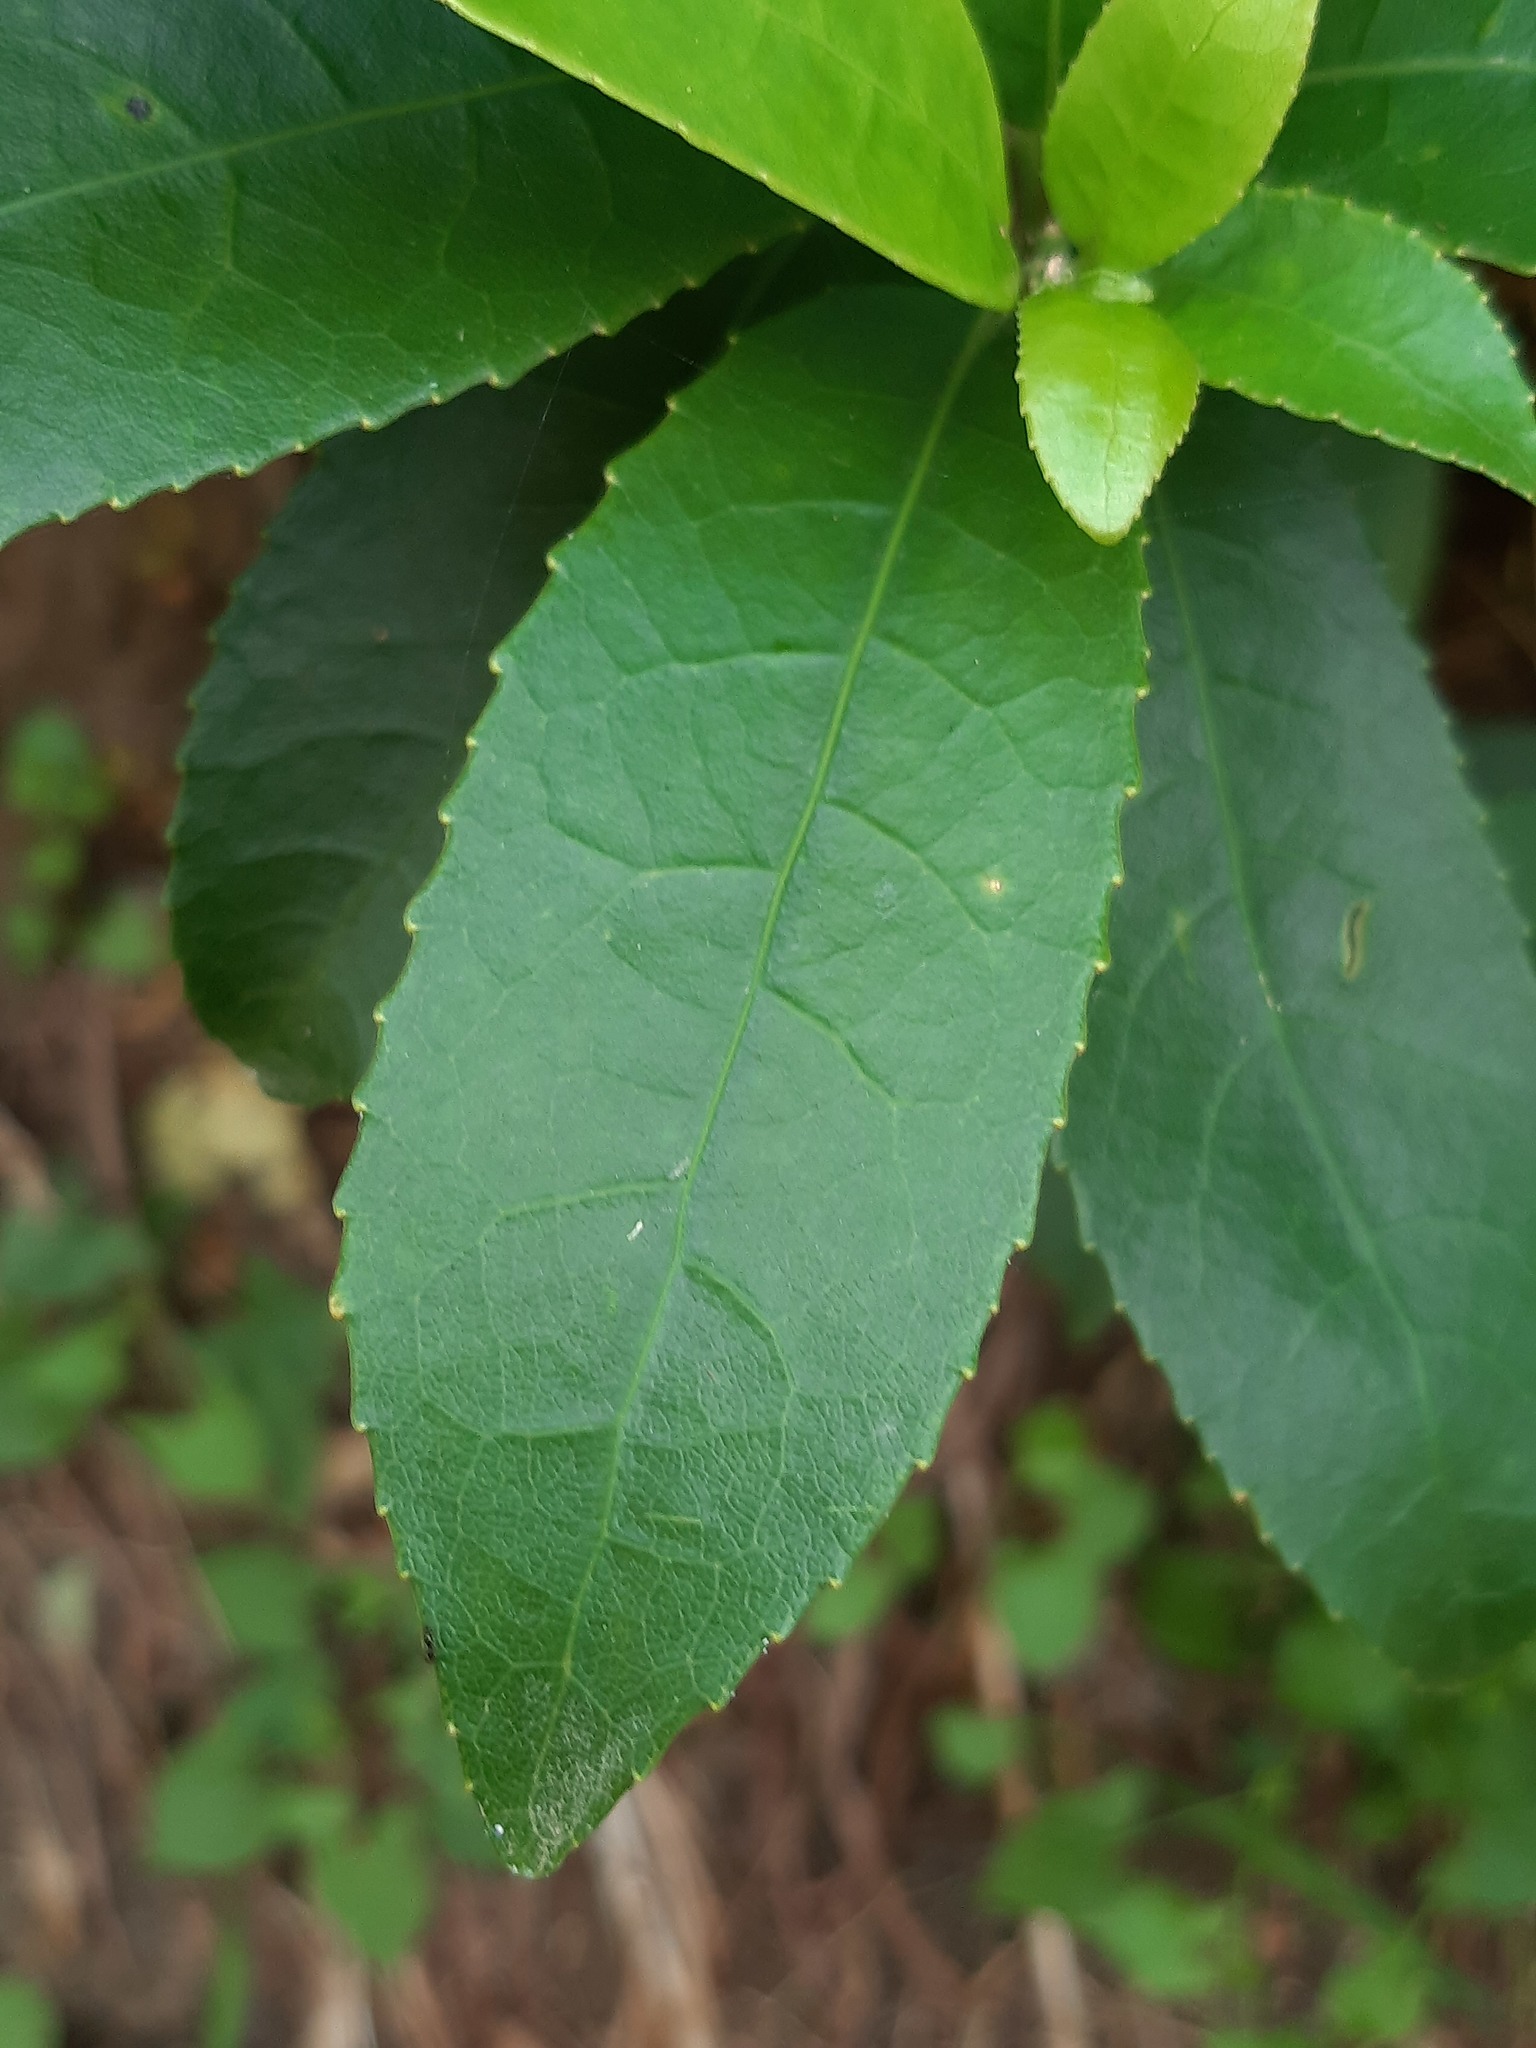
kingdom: Plantae
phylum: Tracheophyta
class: Magnoliopsida
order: Malpighiales
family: Violaceae
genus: Melicytus
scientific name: Melicytus ramiflorus
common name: Mahoe
